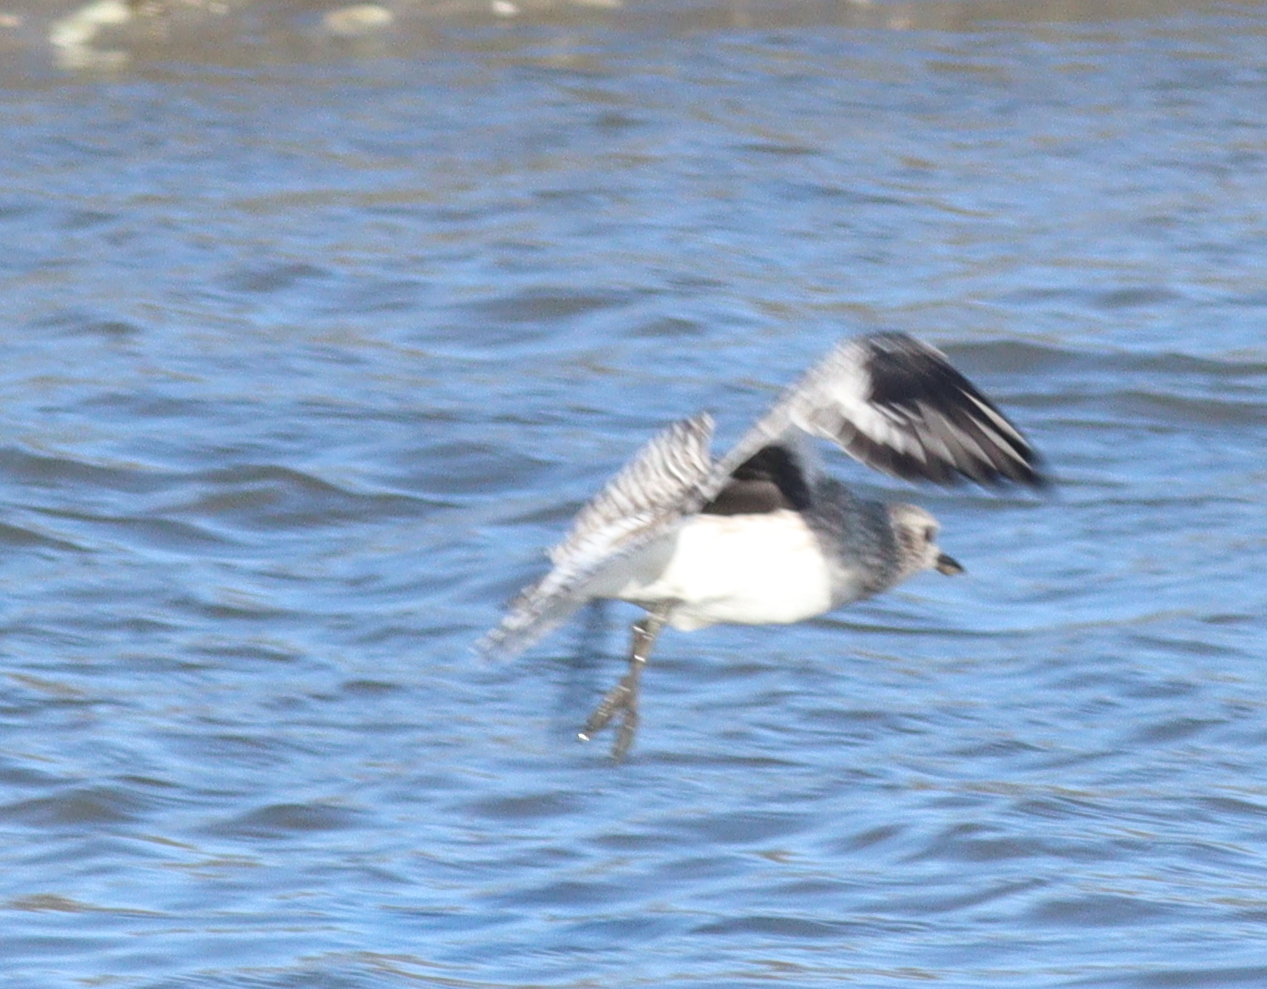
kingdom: Animalia
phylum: Chordata
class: Aves
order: Charadriiformes
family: Charadriidae
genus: Pluvialis
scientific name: Pluvialis squatarola
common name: Grey plover
